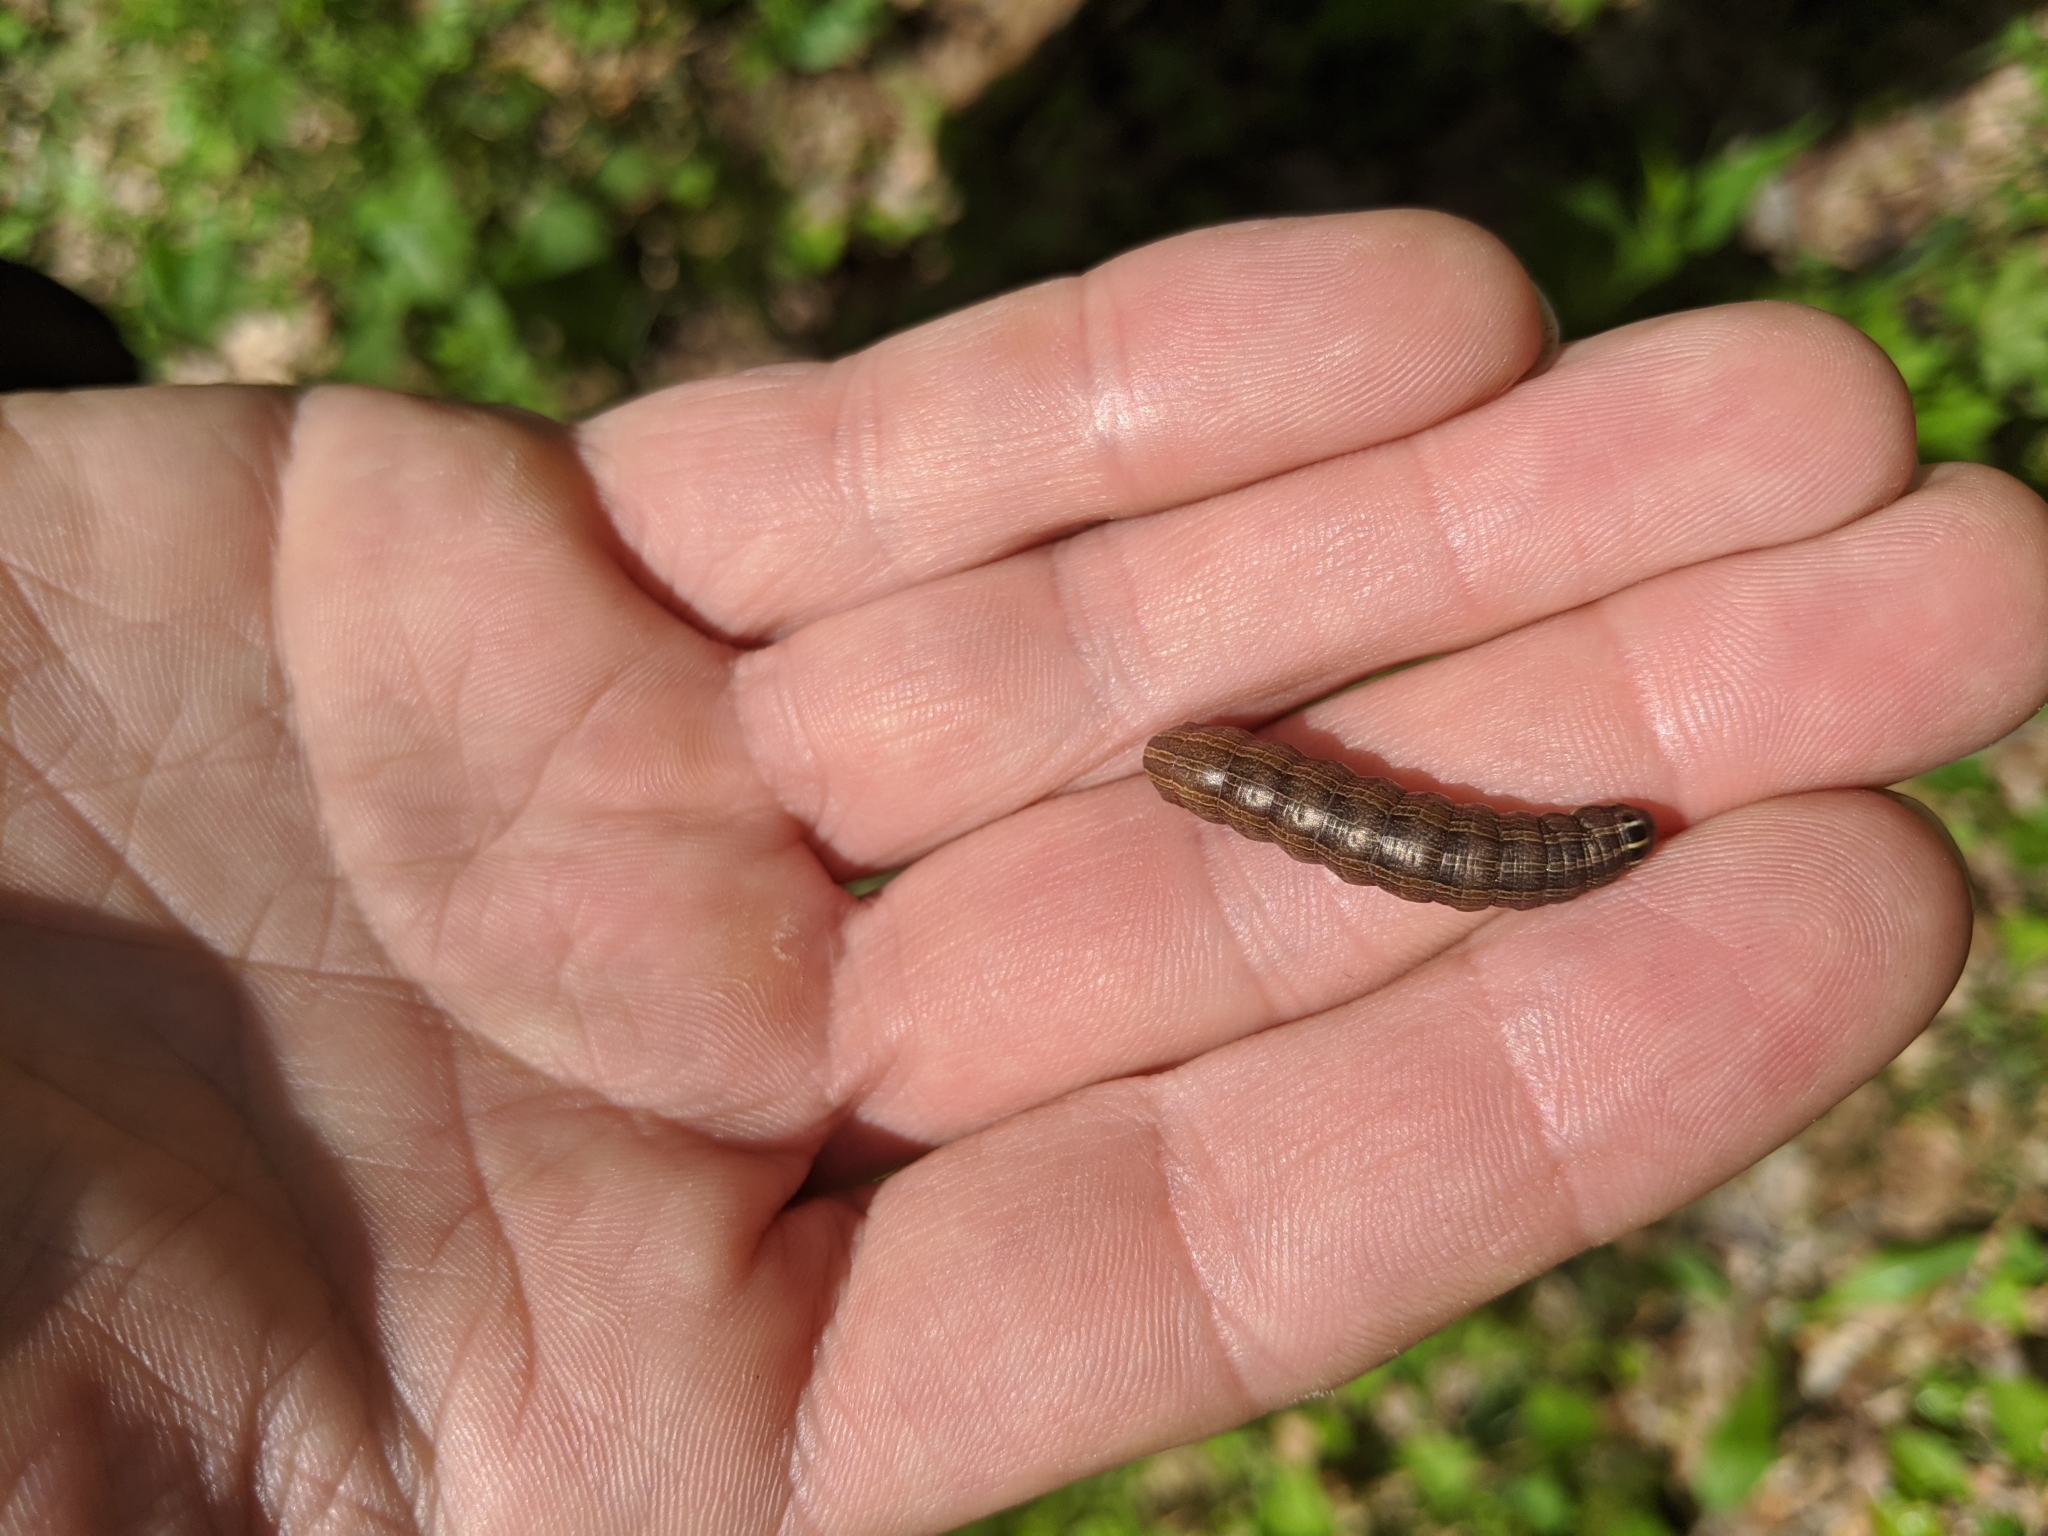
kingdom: Animalia
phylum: Arthropoda
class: Insecta
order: Lepidoptera
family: Noctuidae
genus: Nephelodes
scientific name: Nephelodes minians
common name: Bronzed cutworm
